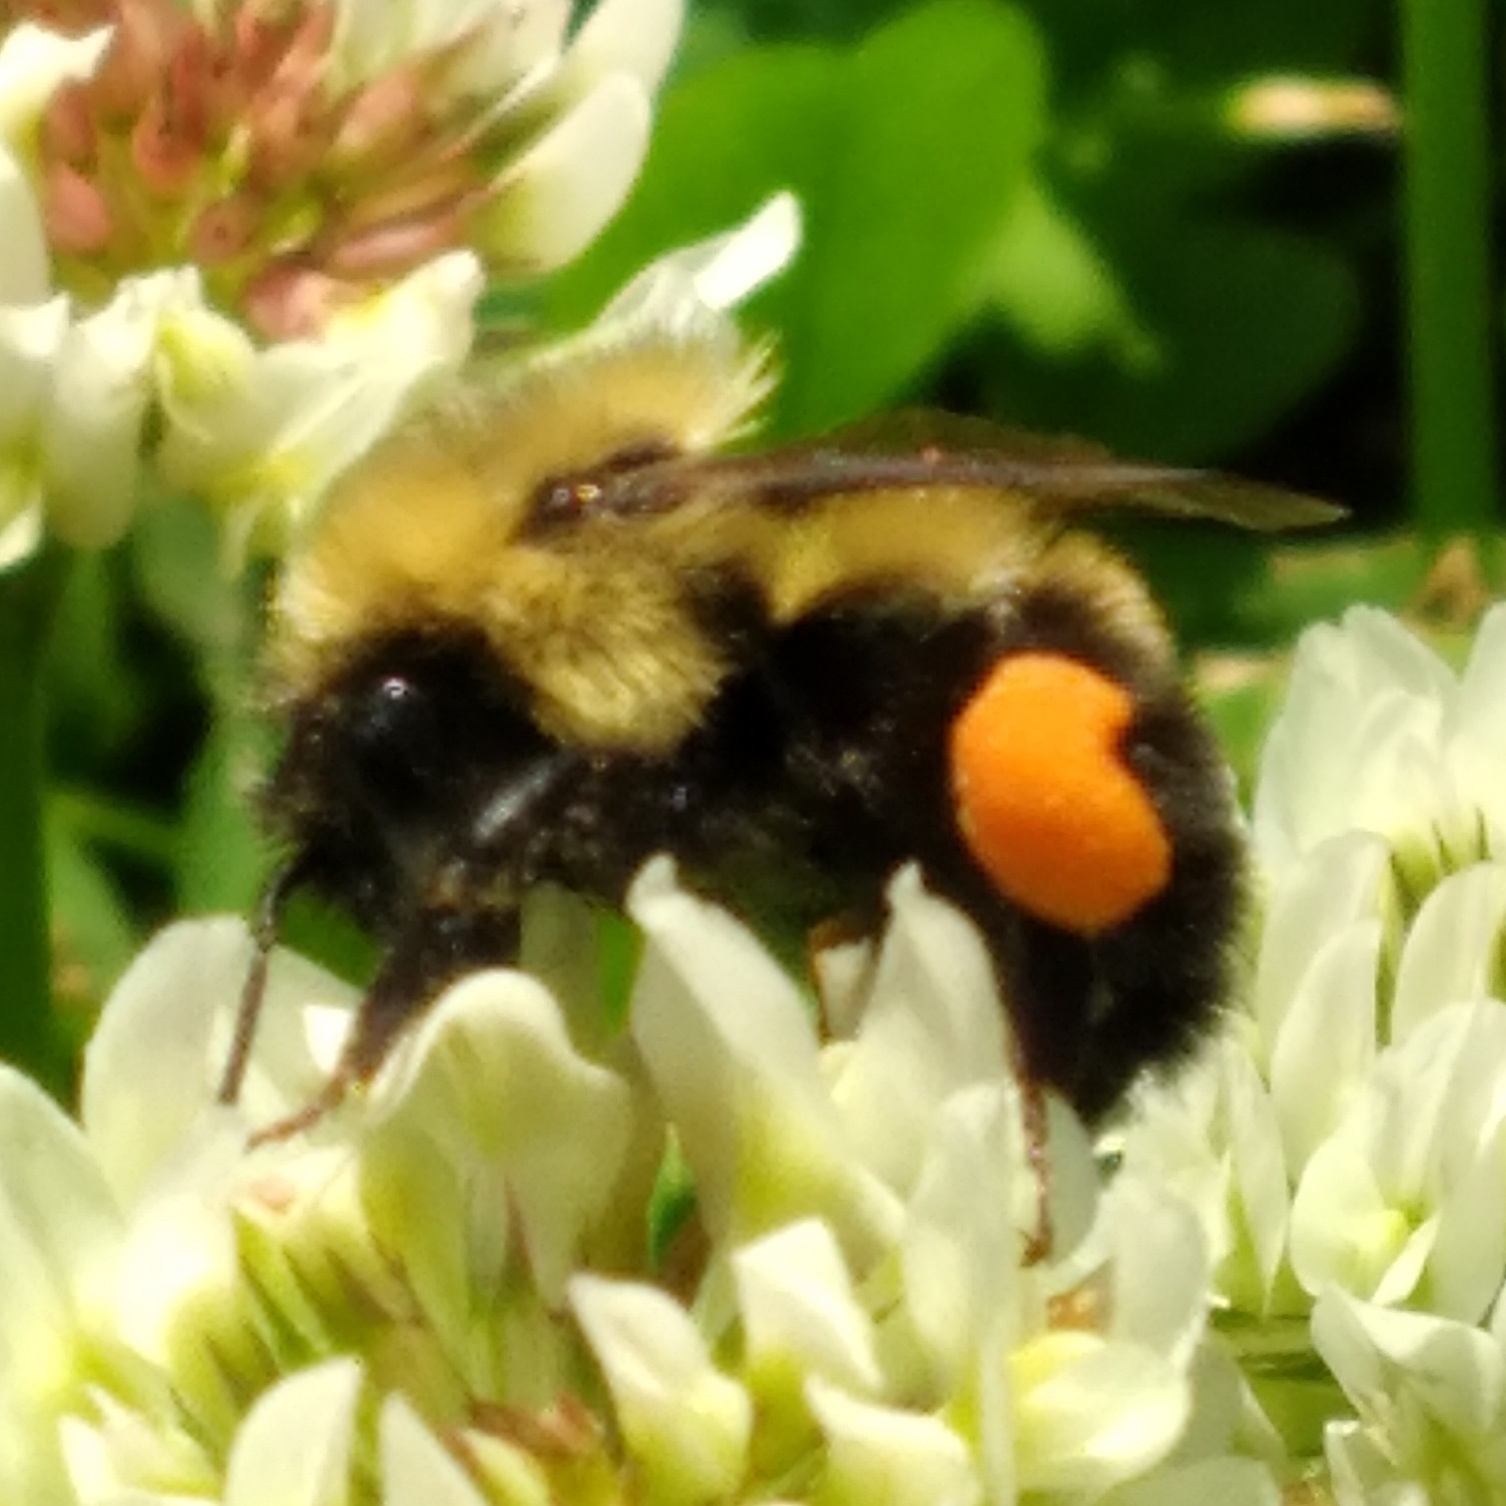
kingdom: Animalia
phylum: Arthropoda
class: Insecta
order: Hymenoptera
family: Apidae
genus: Bombus
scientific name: Bombus bimaculatus
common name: Two-spotted bumble bee
